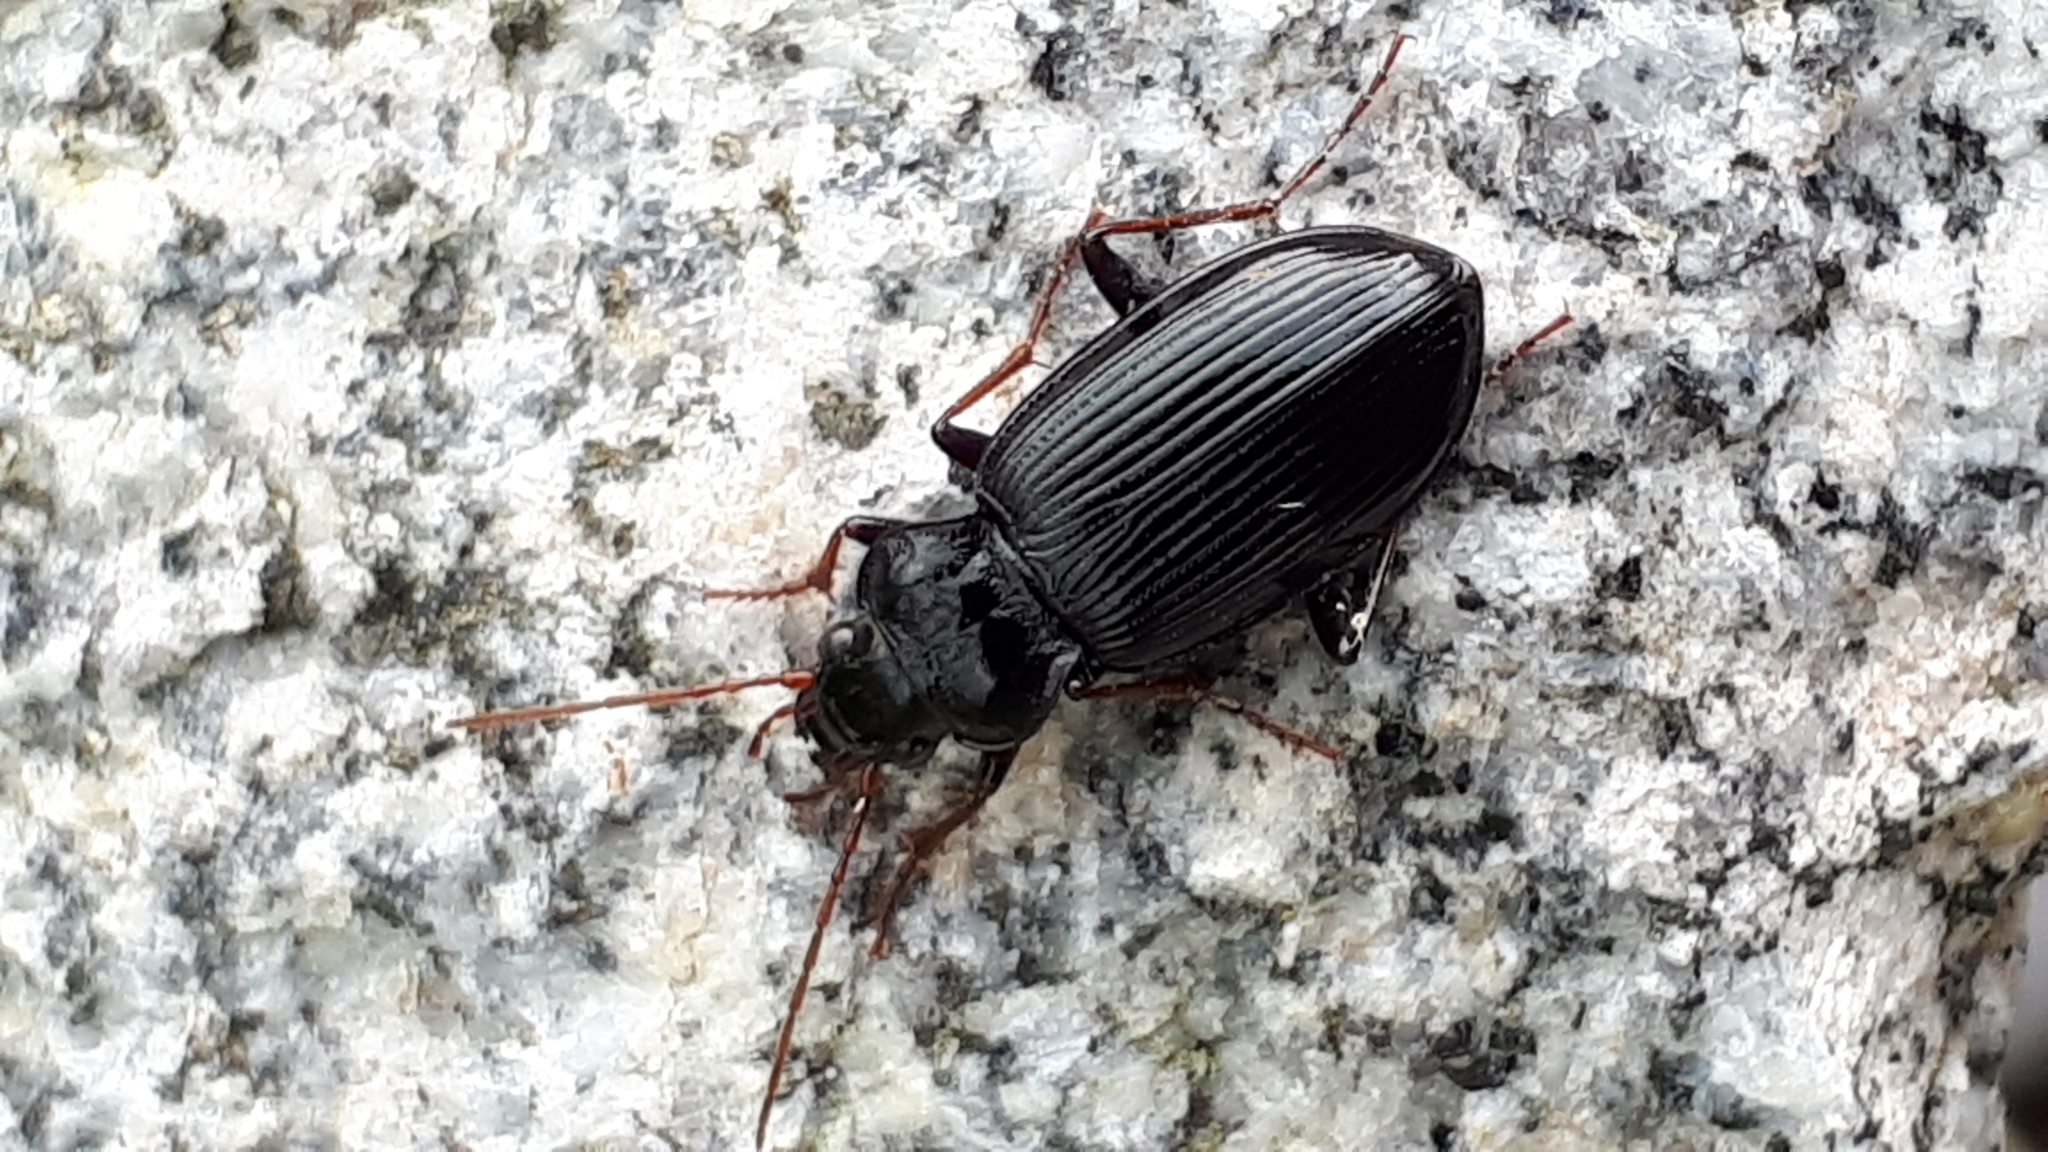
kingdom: Animalia
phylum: Arthropoda
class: Insecta
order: Coleoptera
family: Carabidae
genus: Nebria
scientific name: Nebria brevicollis
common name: Short-necked gazelle beetle
